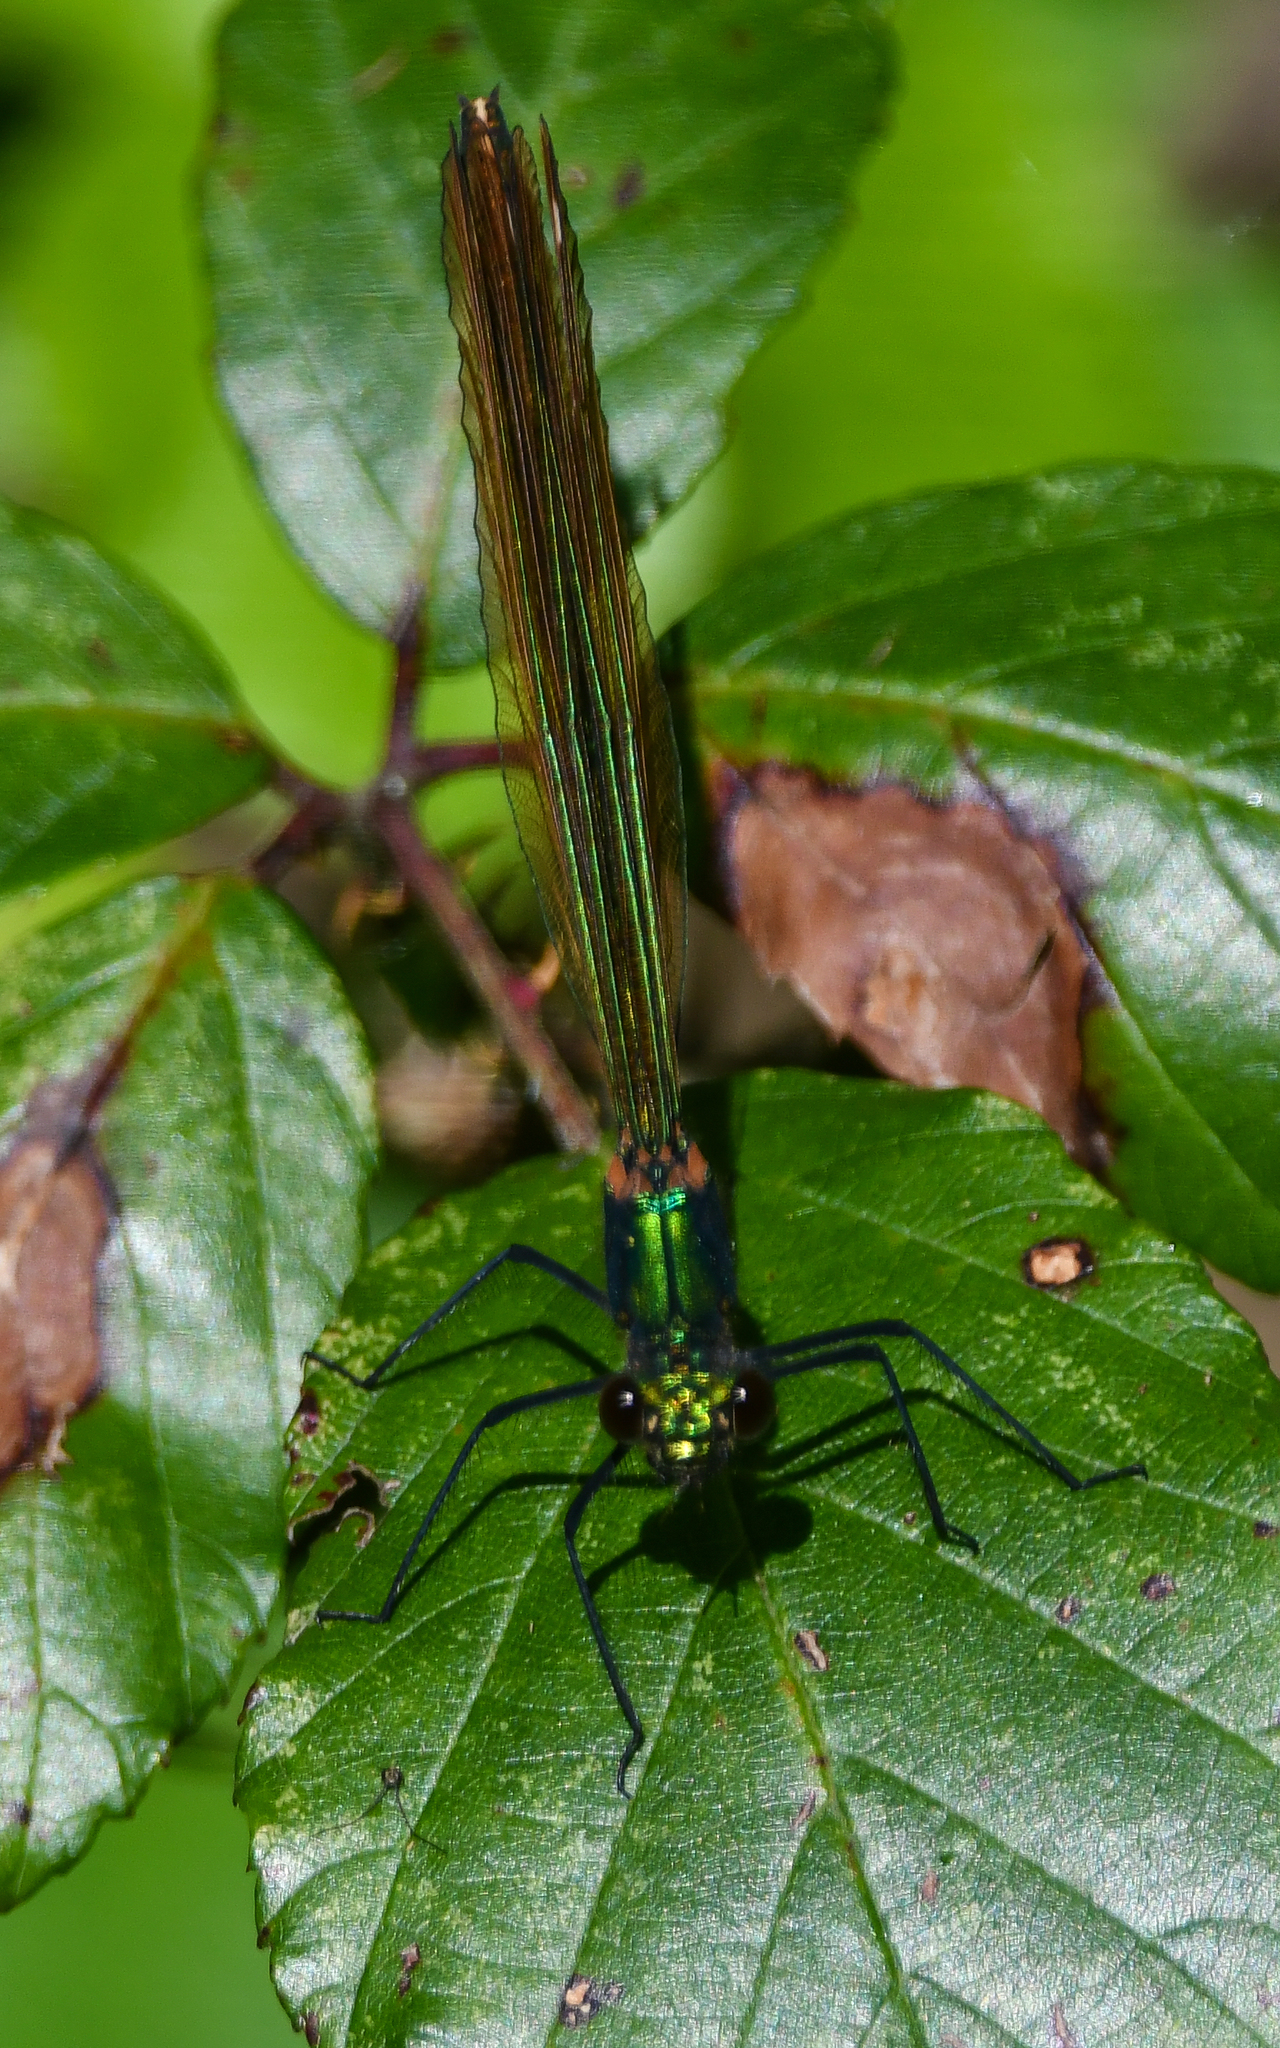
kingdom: Animalia
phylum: Arthropoda
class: Insecta
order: Odonata
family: Calopterygidae
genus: Calopteryx
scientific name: Calopteryx splendens
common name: Banded demoiselle
